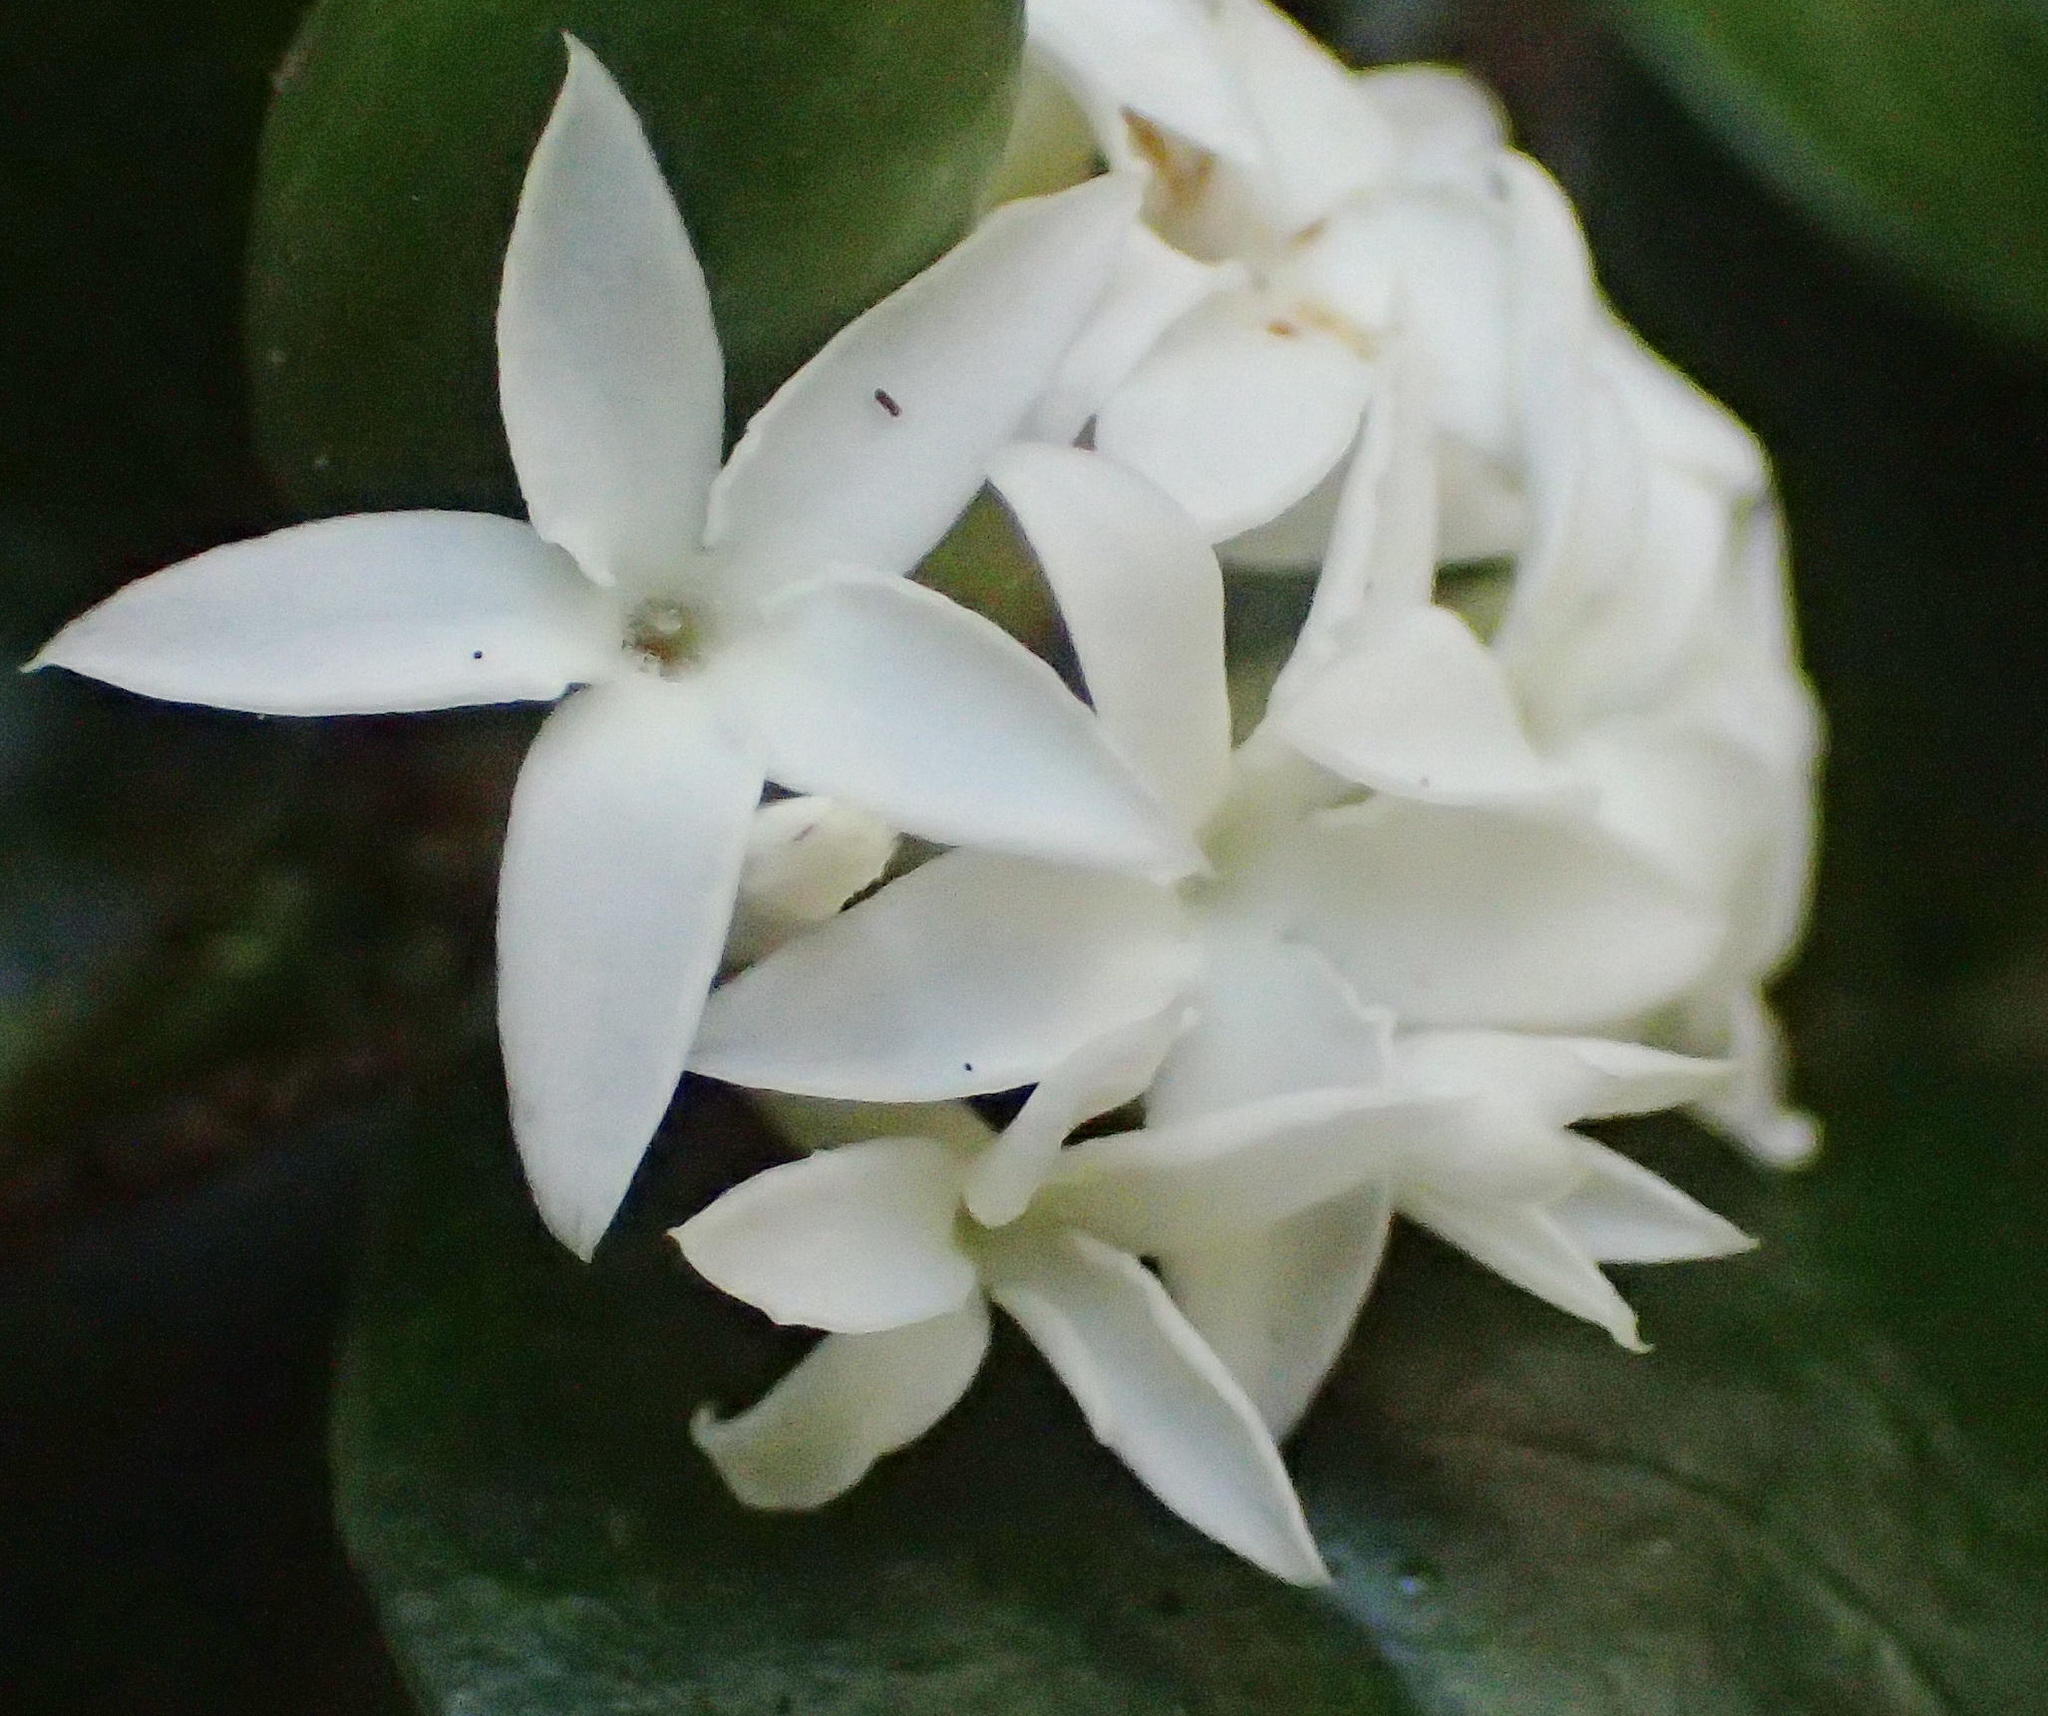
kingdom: Plantae
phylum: Tracheophyta
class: Magnoliopsida
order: Gentianales
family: Apocynaceae
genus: Carissa
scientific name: Carissa bispinosa
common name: Forest num-num
